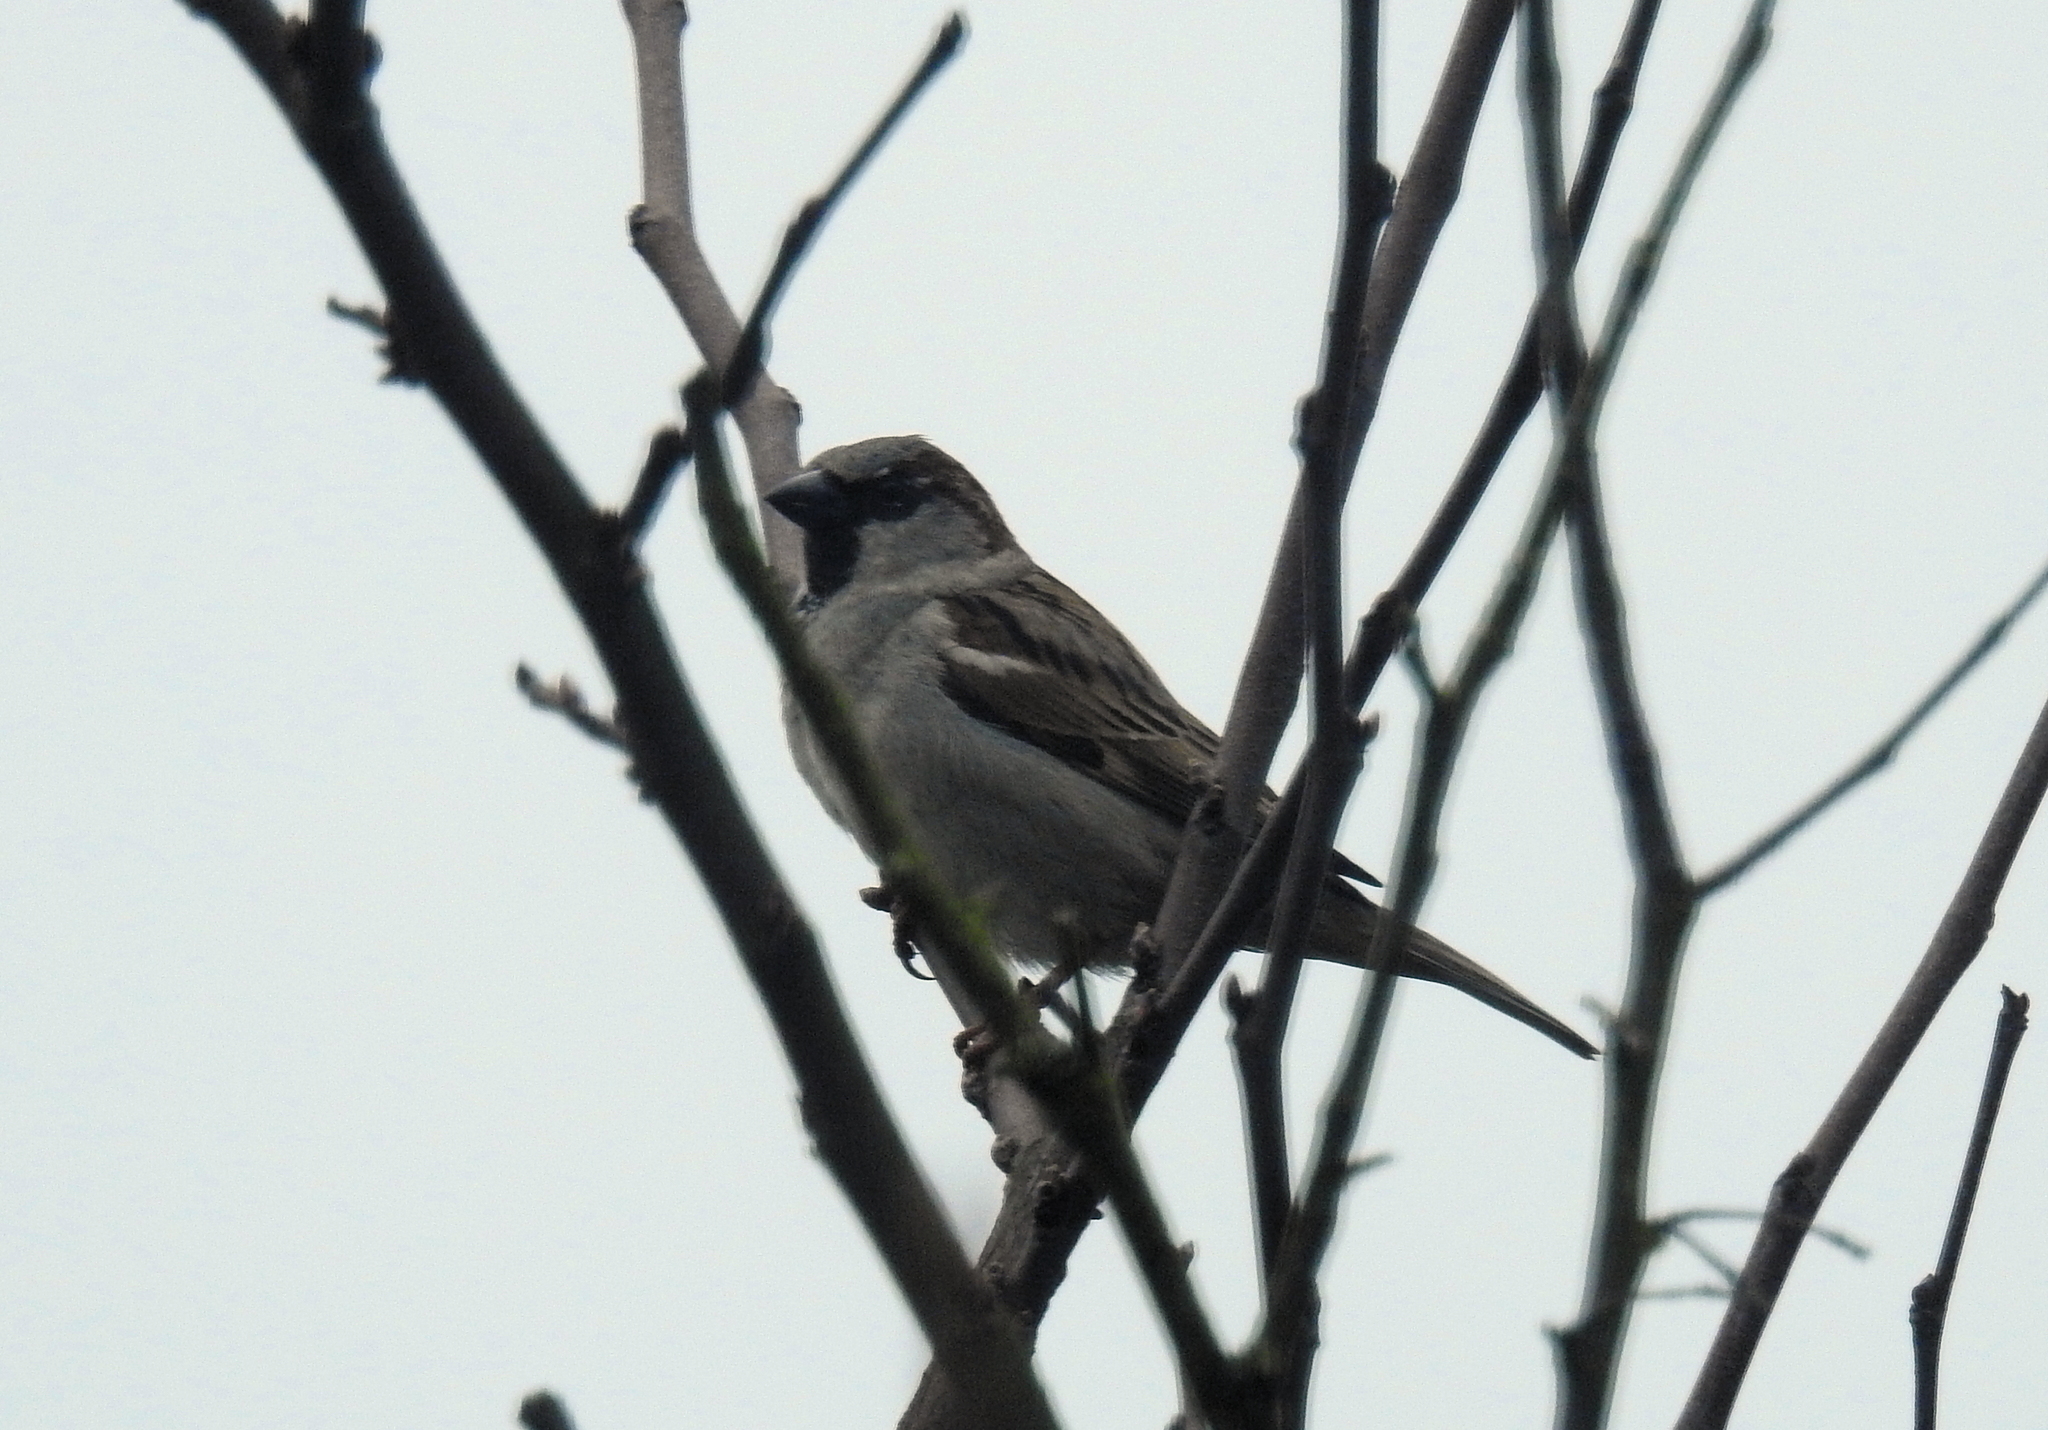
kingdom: Animalia
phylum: Chordata
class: Aves
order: Passeriformes
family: Passeridae
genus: Passer
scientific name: Passer domesticus
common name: House sparrow
